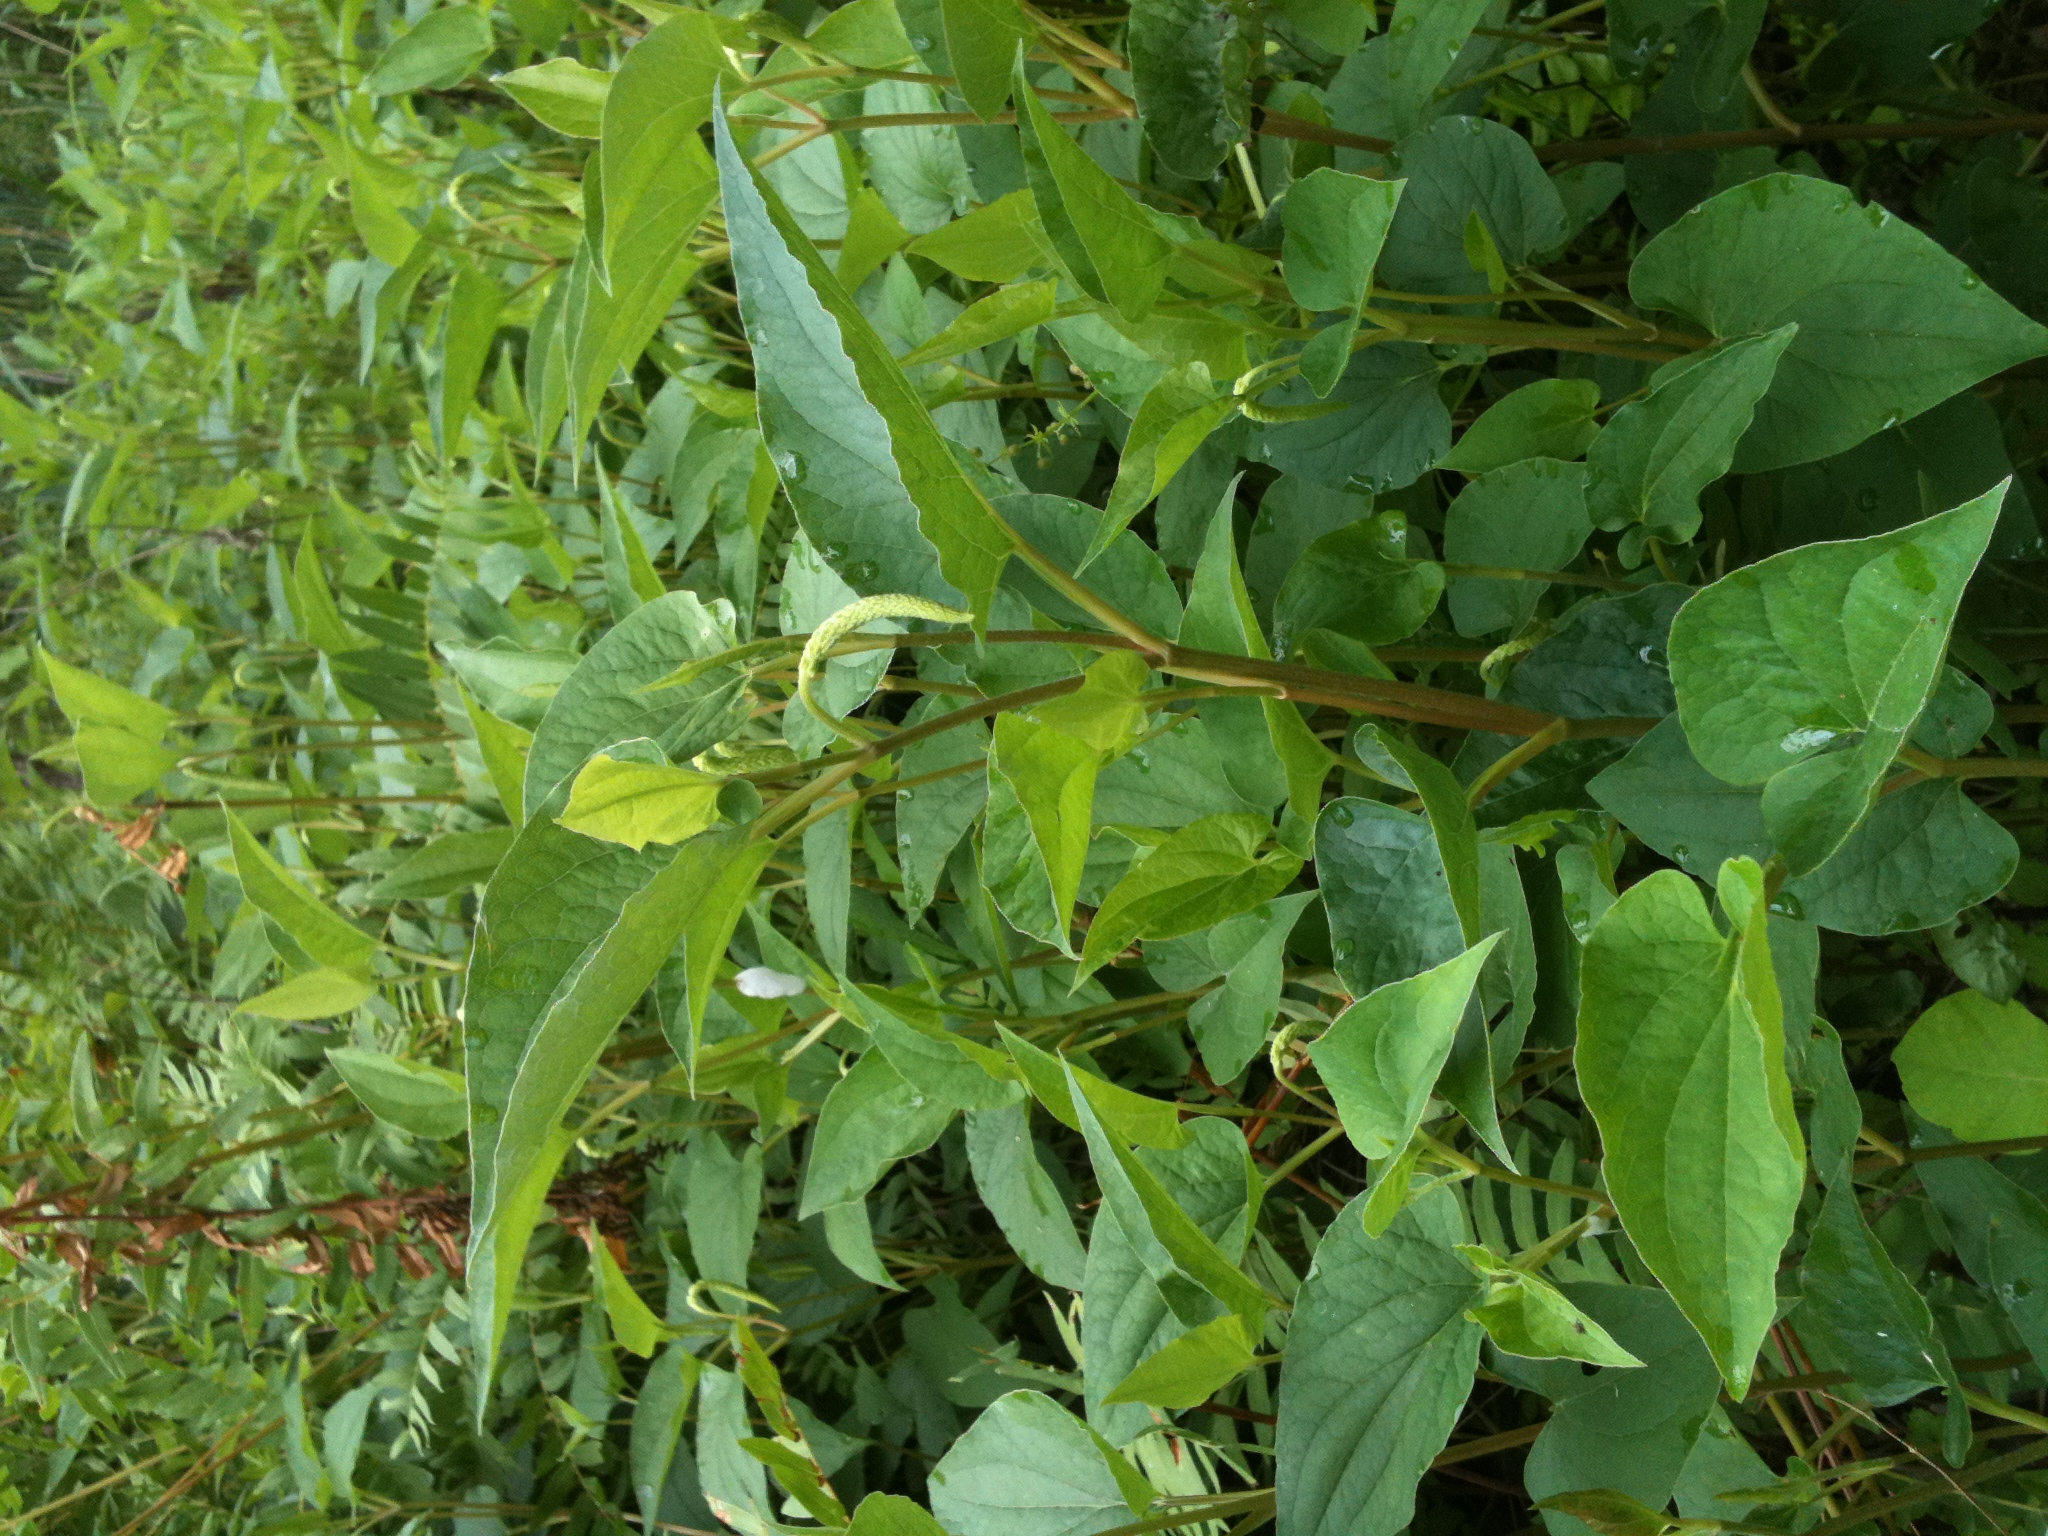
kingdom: Plantae
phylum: Tracheophyta
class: Magnoliopsida
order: Piperales
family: Saururaceae
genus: Saururus
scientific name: Saururus cernuus
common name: Lizard's-tail
